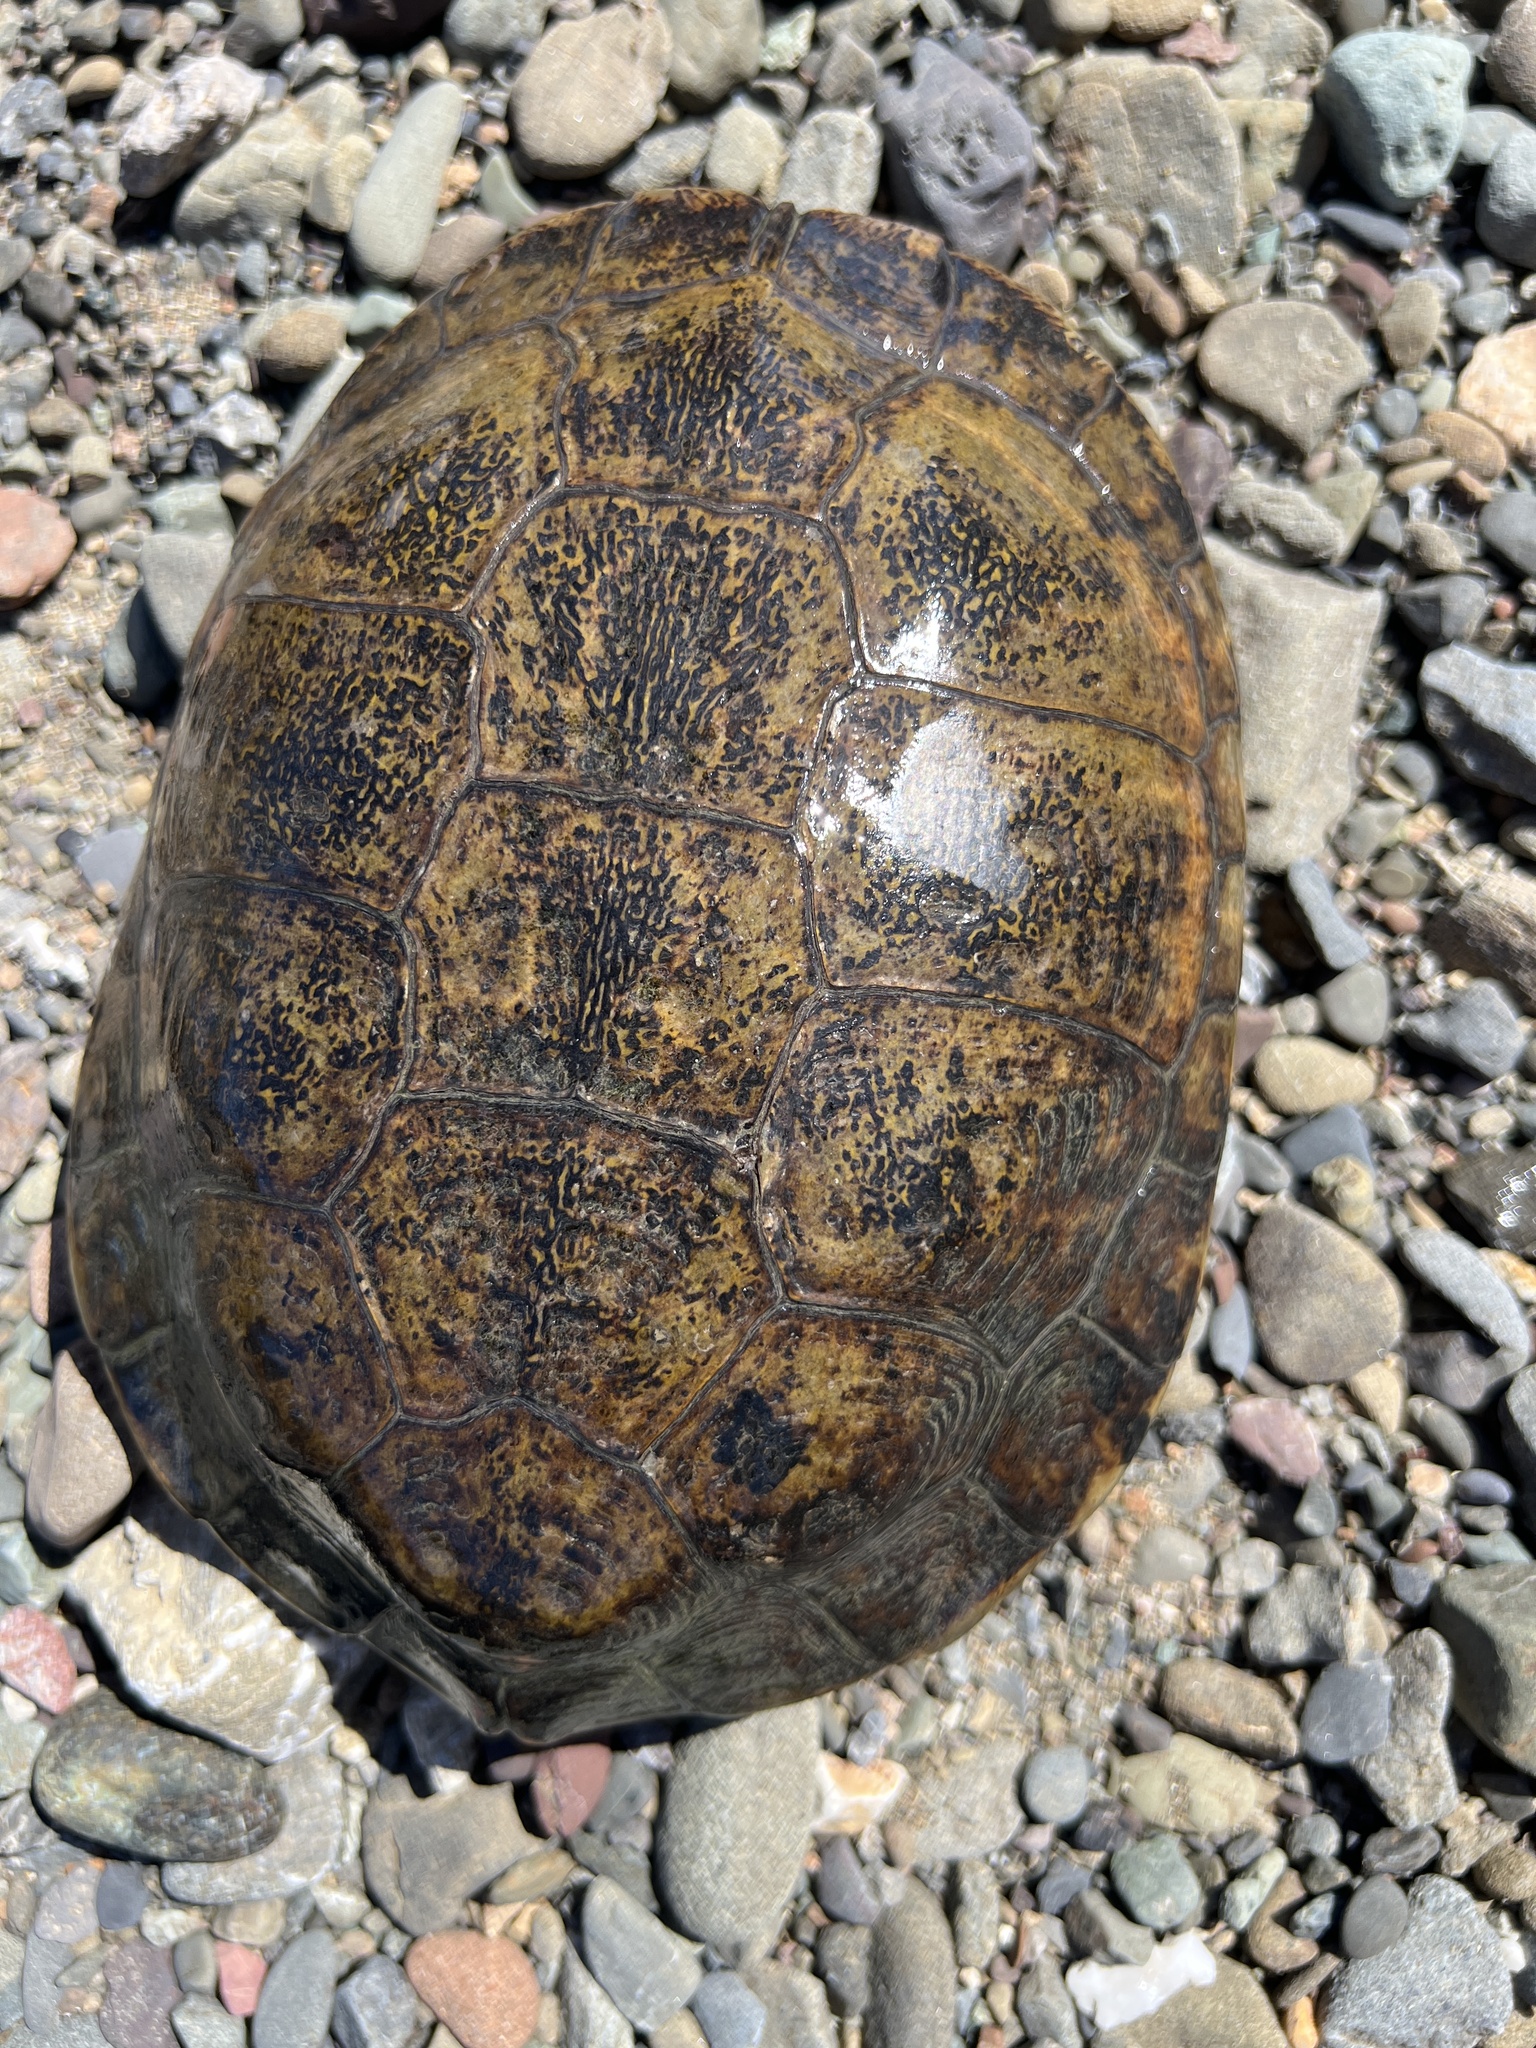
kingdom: Animalia
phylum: Chordata
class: Testudines
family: Emydidae
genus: Actinemys
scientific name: Actinemys marmorata
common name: Western pond turtle
